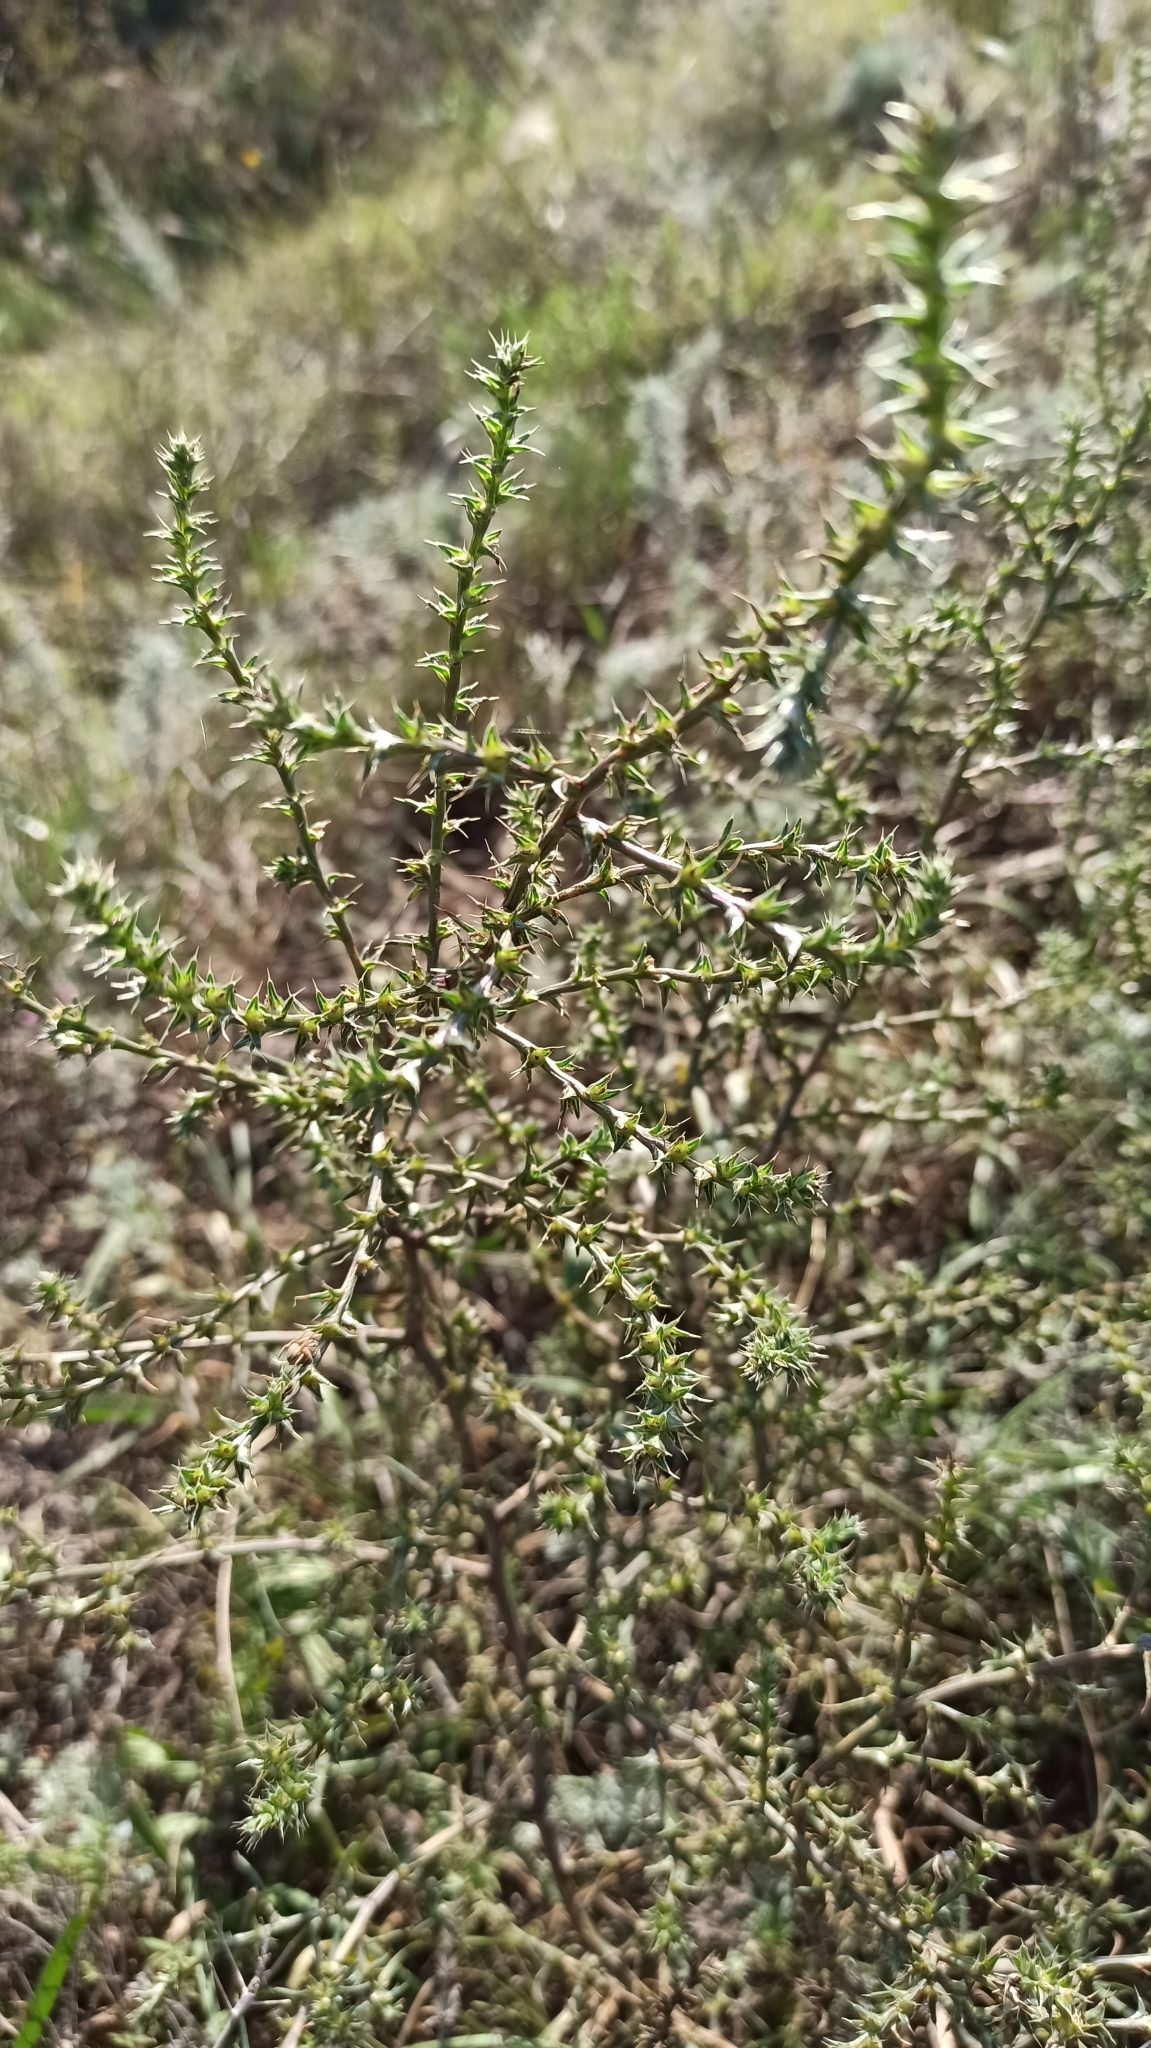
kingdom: Plantae
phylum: Tracheophyta
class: Magnoliopsida
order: Caryophyllales
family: Amaranthaceae
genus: Salsola
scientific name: Salsola tragus
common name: Prickly russian thistle
